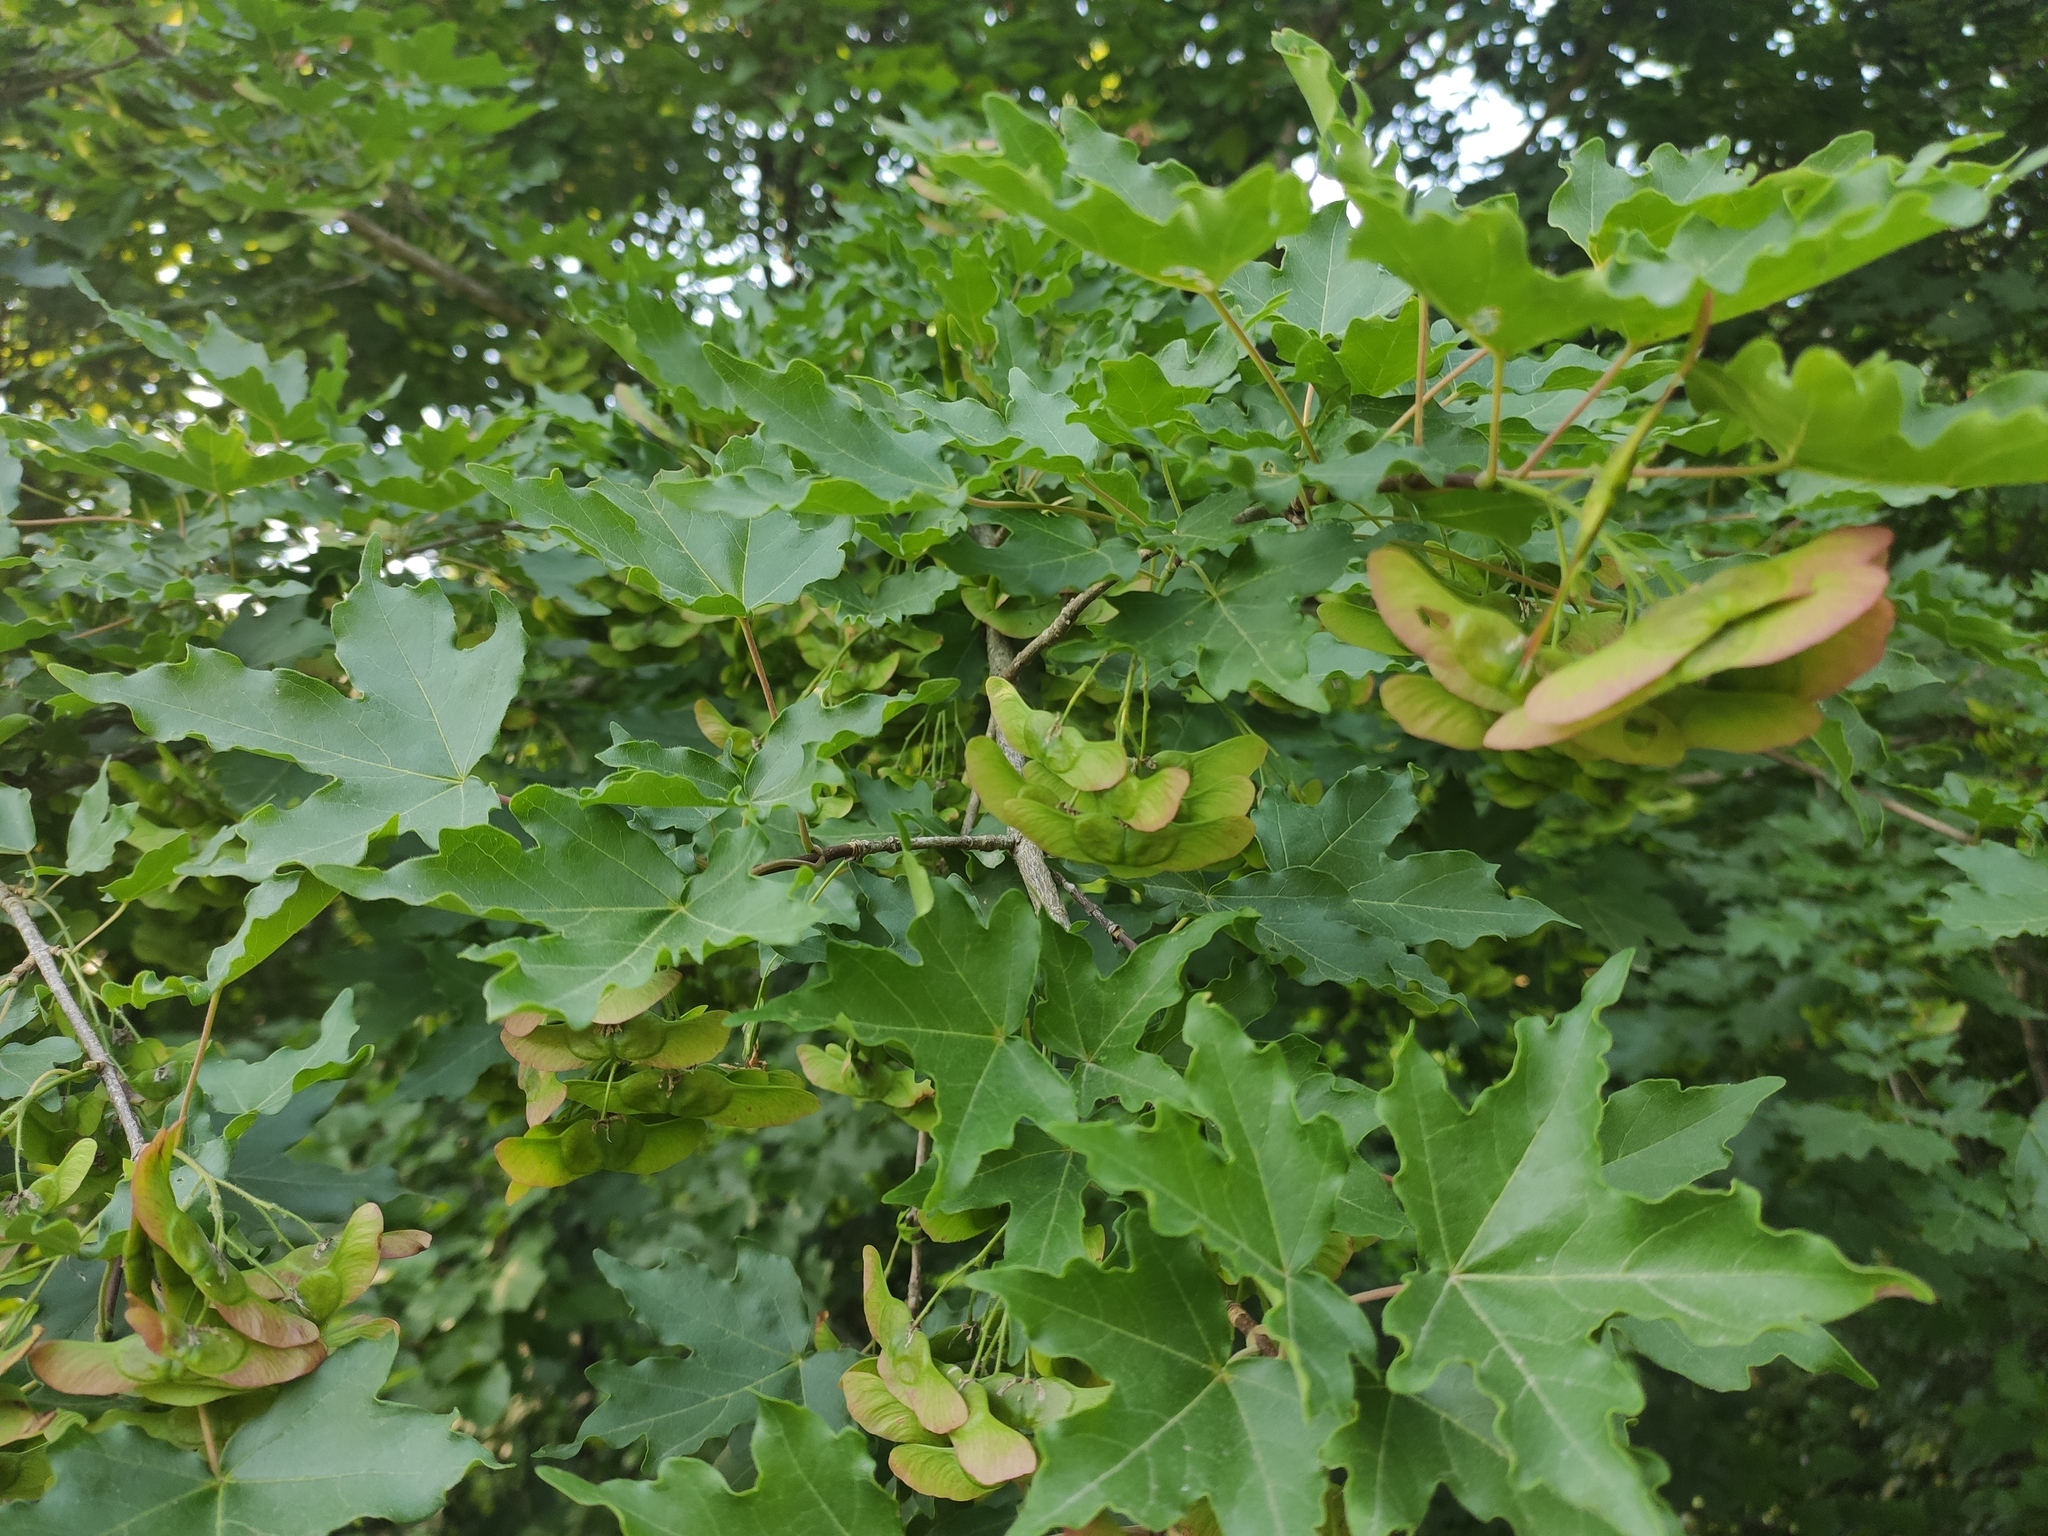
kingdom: Plantae
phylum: Tracheophyta
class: Magnoliopsida
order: Sapindales
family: Sapindaceae
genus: Acer
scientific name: Acer campestre
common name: Field maple
